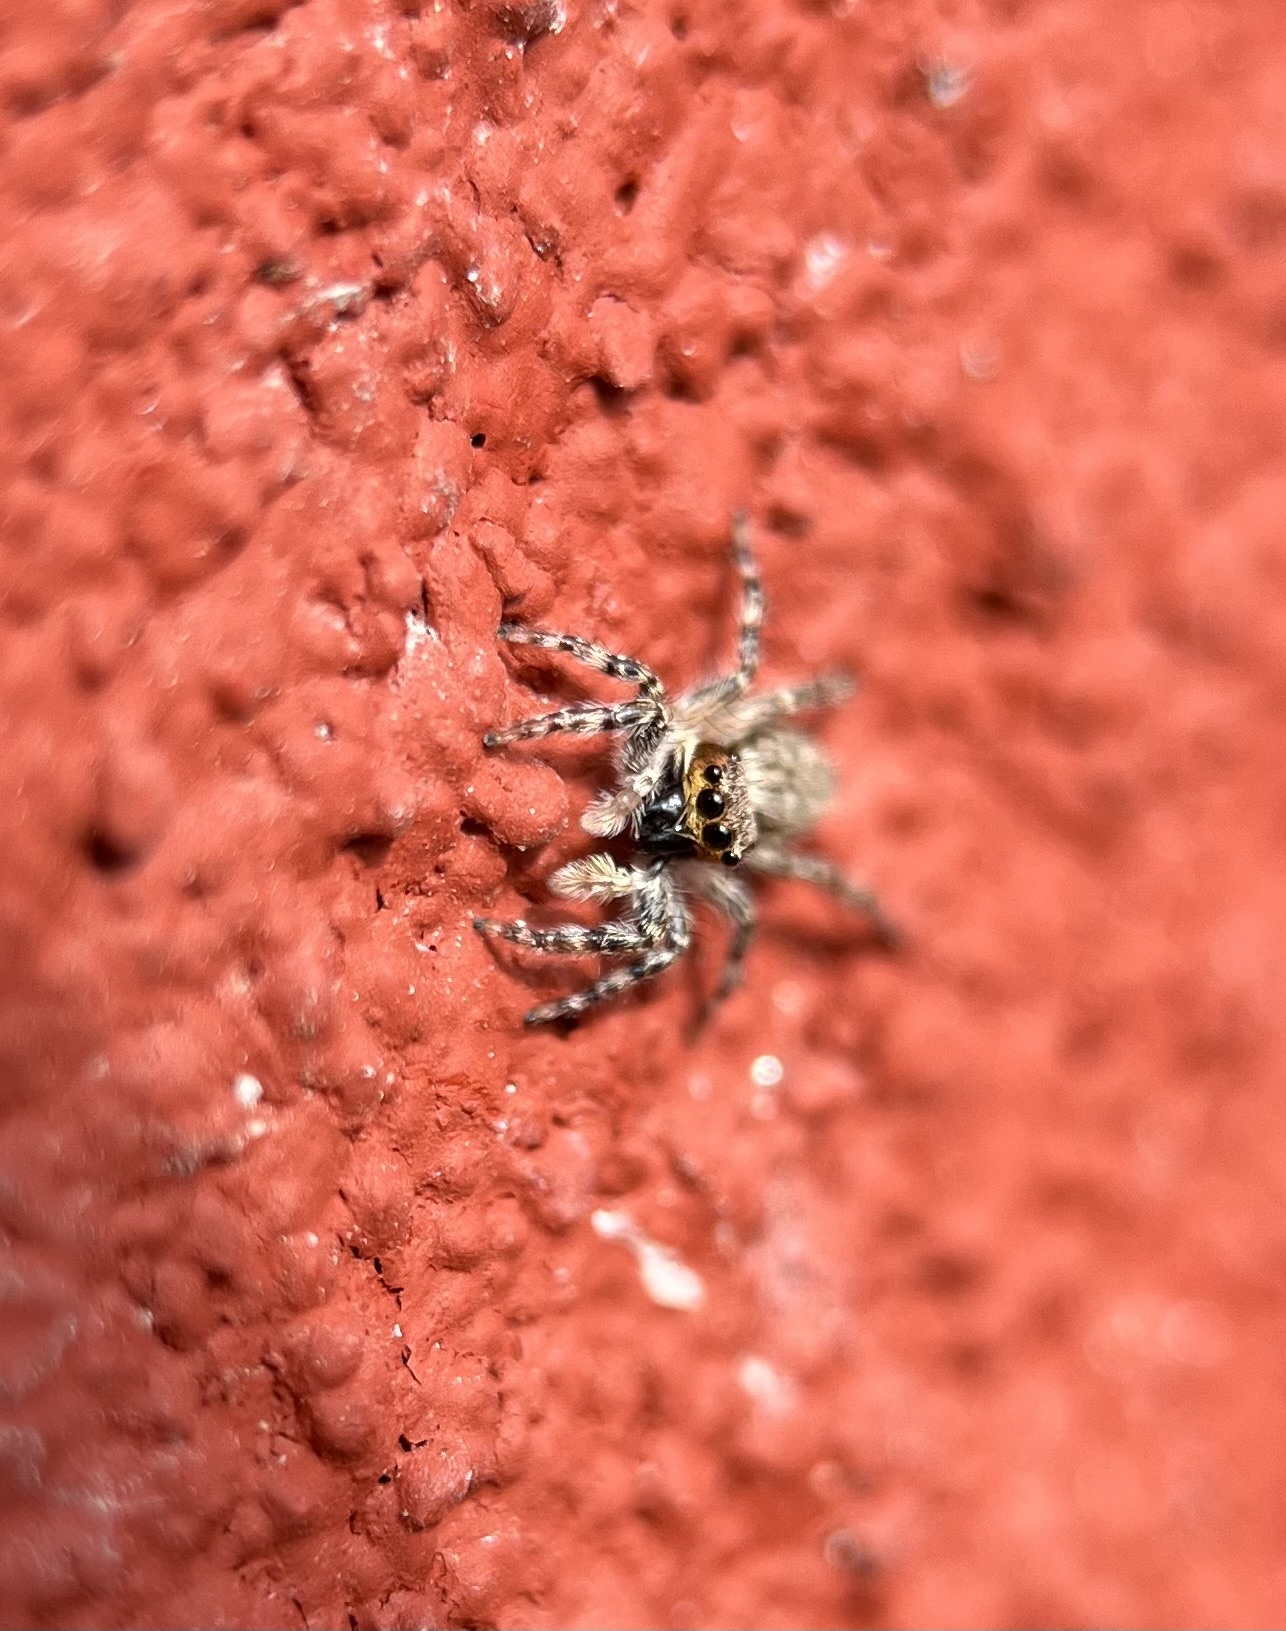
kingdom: Animalia
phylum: Arthropoda
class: Arachnida
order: Araneae
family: Salticidae
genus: Menemerus
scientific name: Menemerus bivittatus
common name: Gray wall jumper
